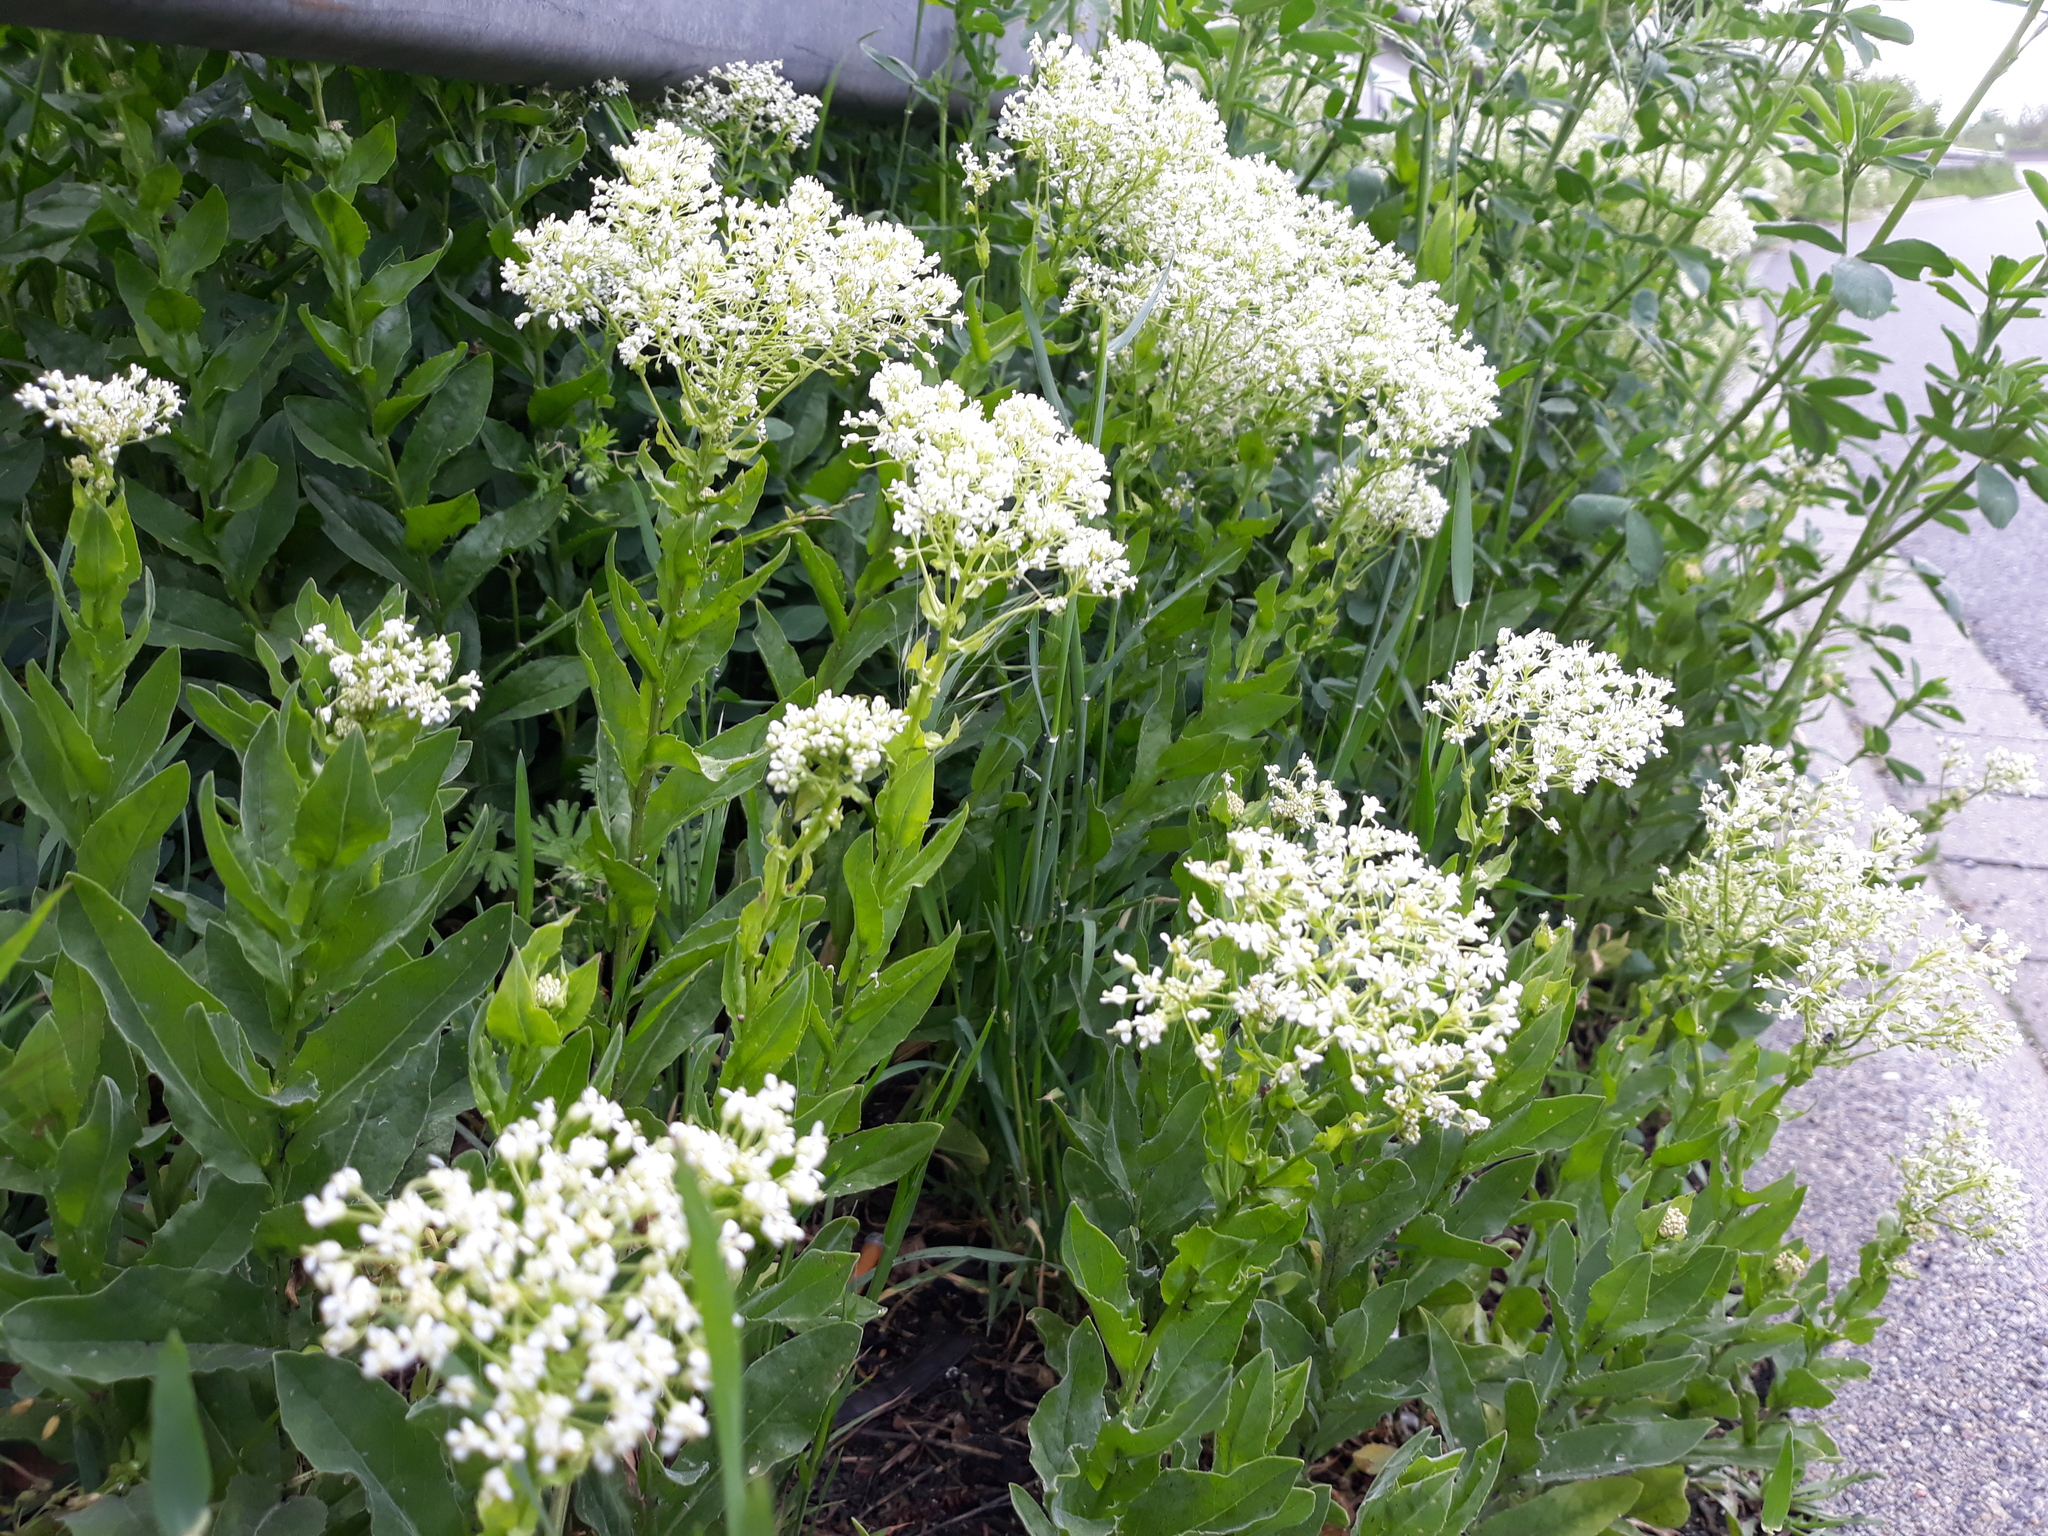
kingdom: Plantae
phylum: Tracheophyta
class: Magnoliopsida
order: Brassicales
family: Brassicaceae
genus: Lepidium
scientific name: Lepidium draba
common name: Hoary cress
